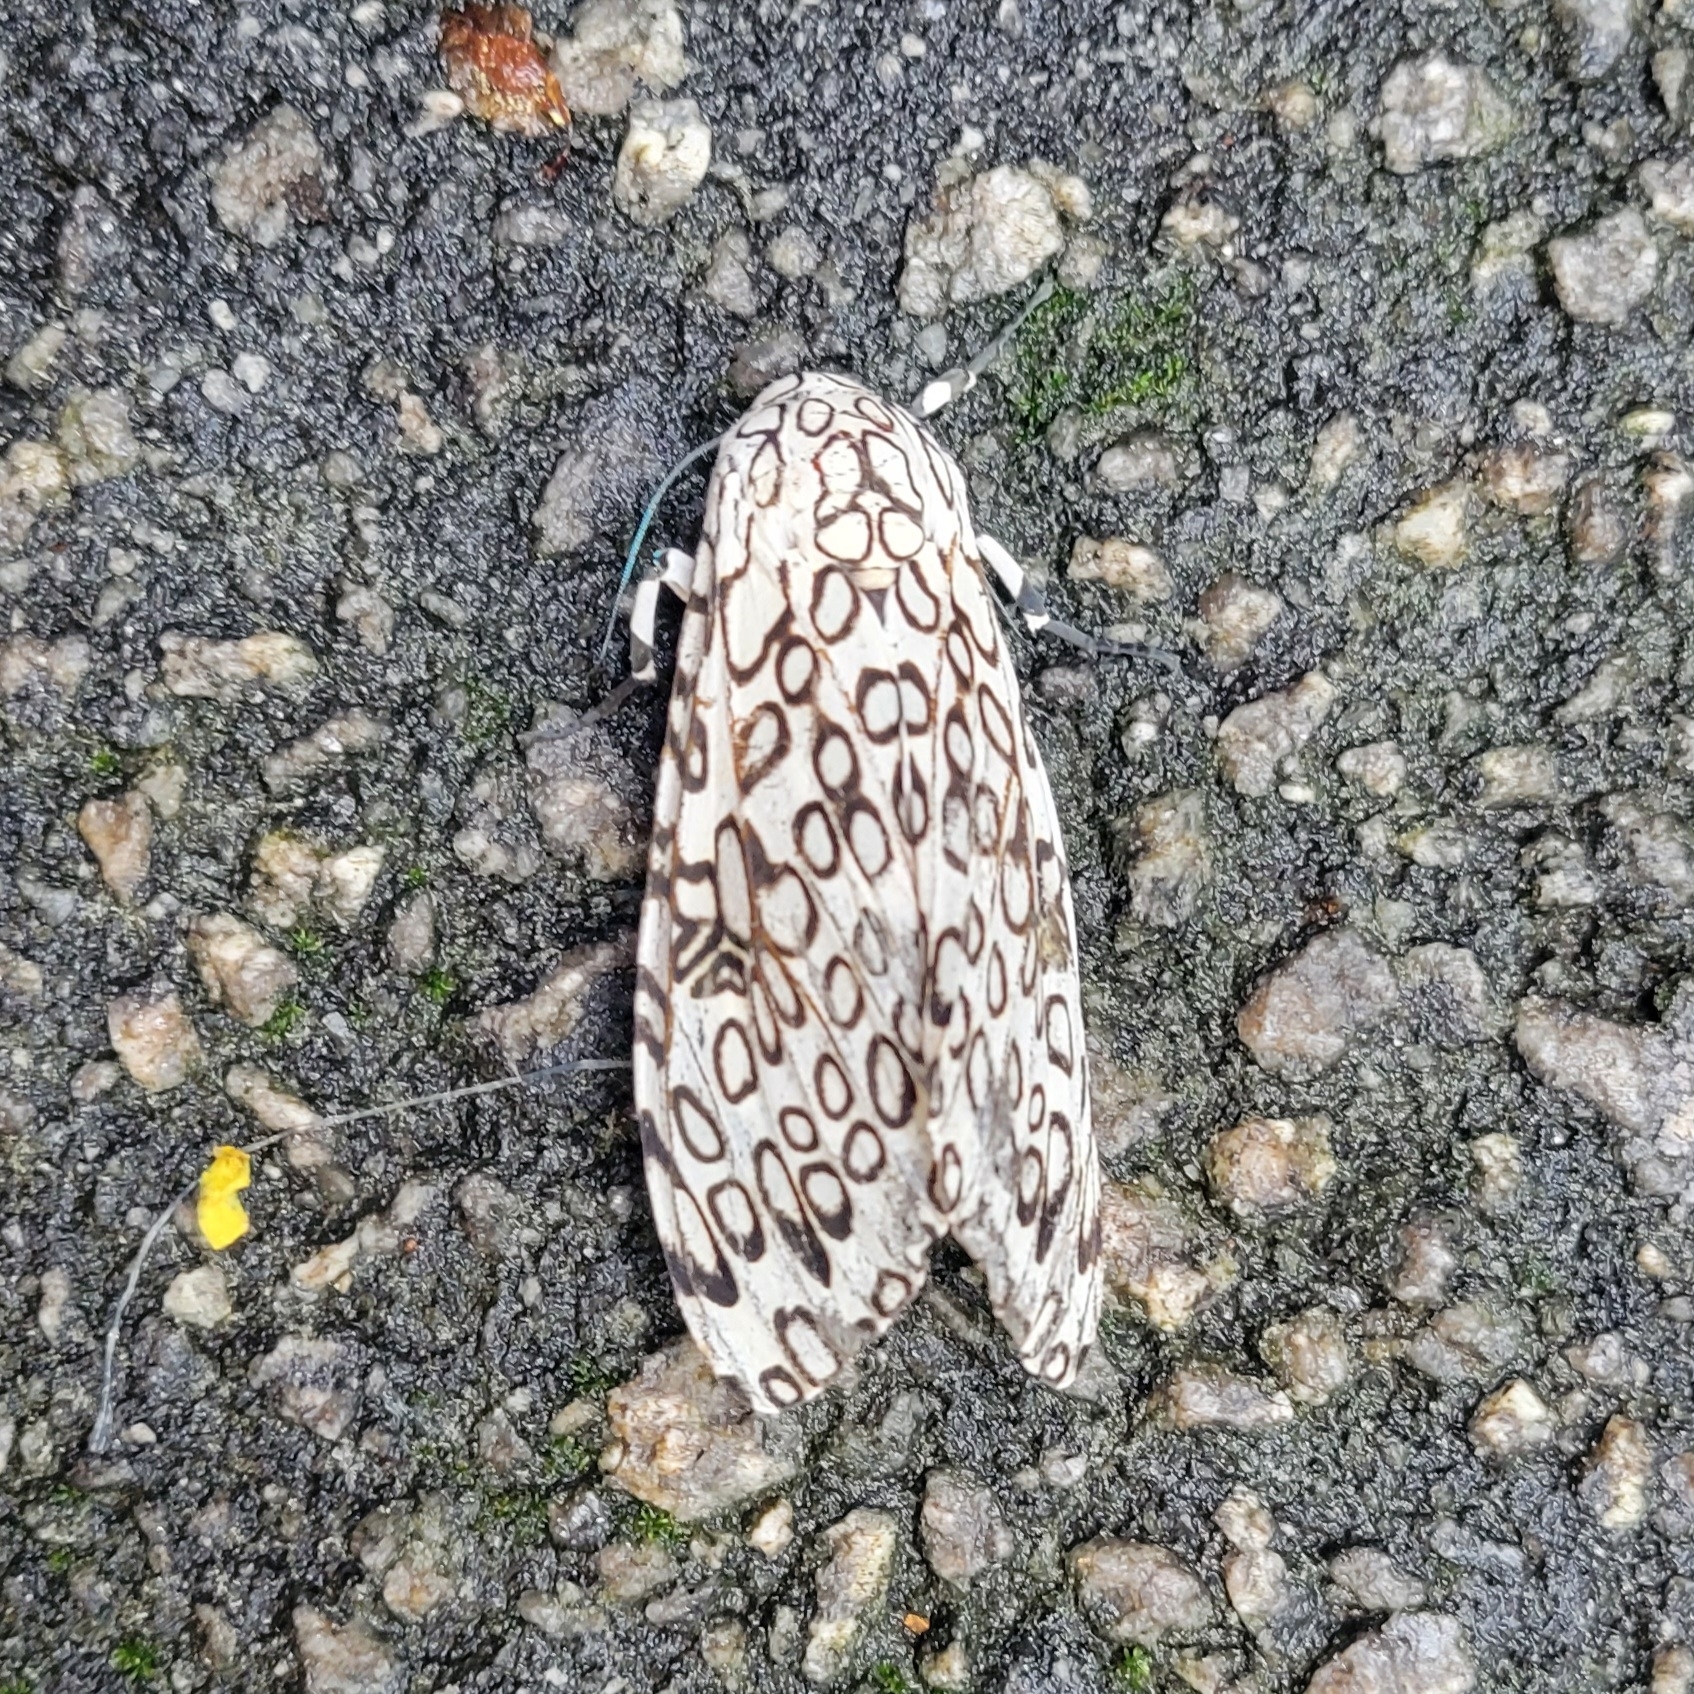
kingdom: Animalia
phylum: Arthropoda
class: Insecta
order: Lepidoptera
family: Erebidae
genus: Hypercompe
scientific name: Hypercompe scribonia
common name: Giant leopard moth
